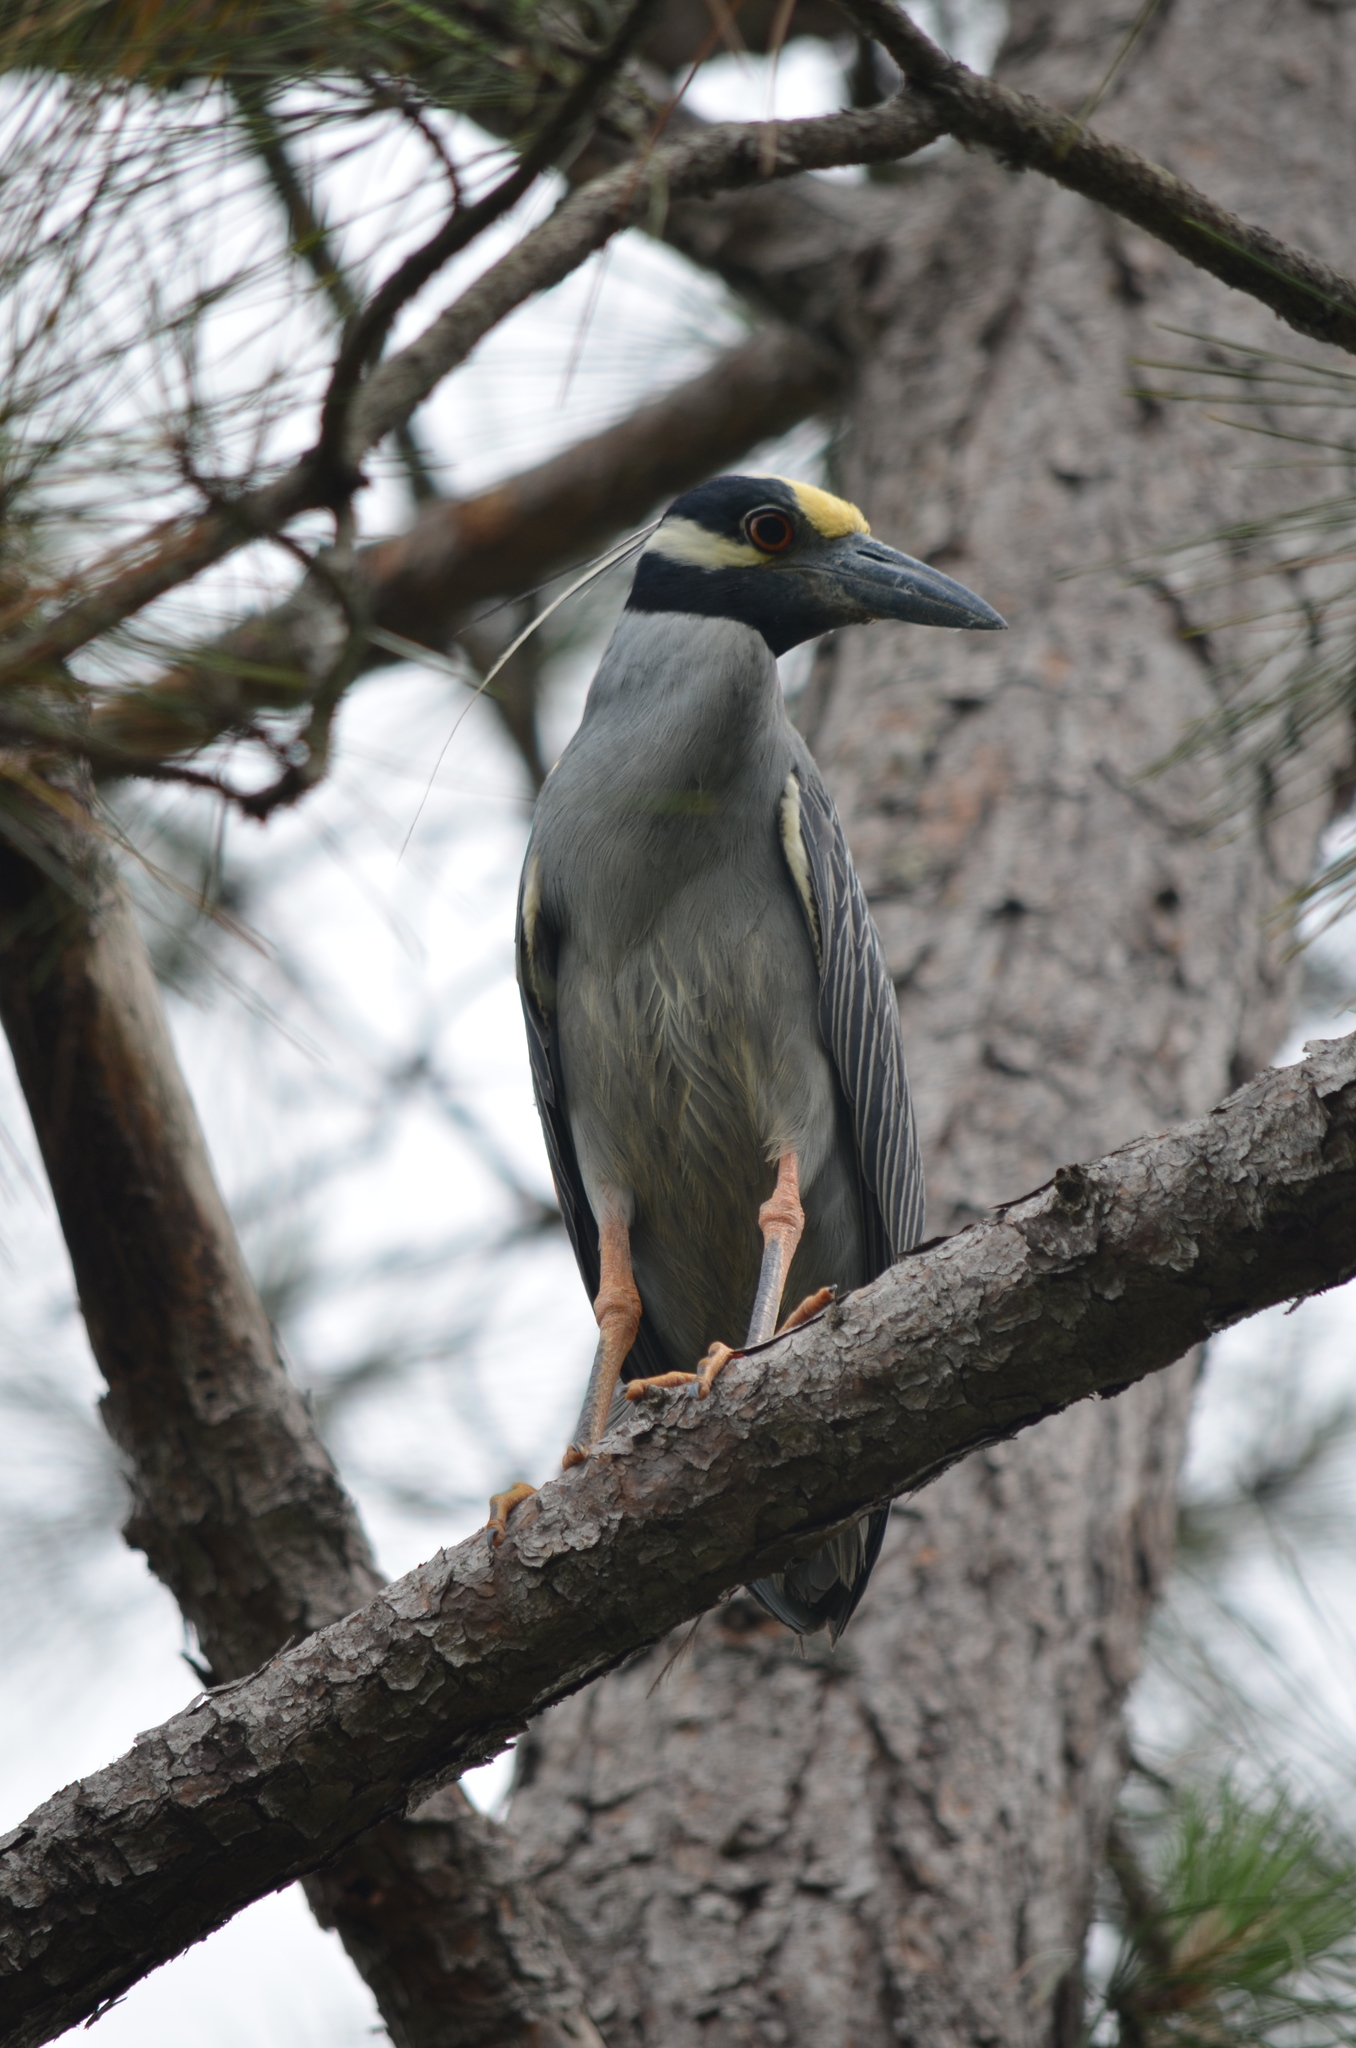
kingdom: Animalia
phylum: Chordata
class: Aves
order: Pelecaniformes
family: Ardeidae
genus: Nyctanassa
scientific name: Nyctanassa violacea
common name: Yellow-crowned night heron
